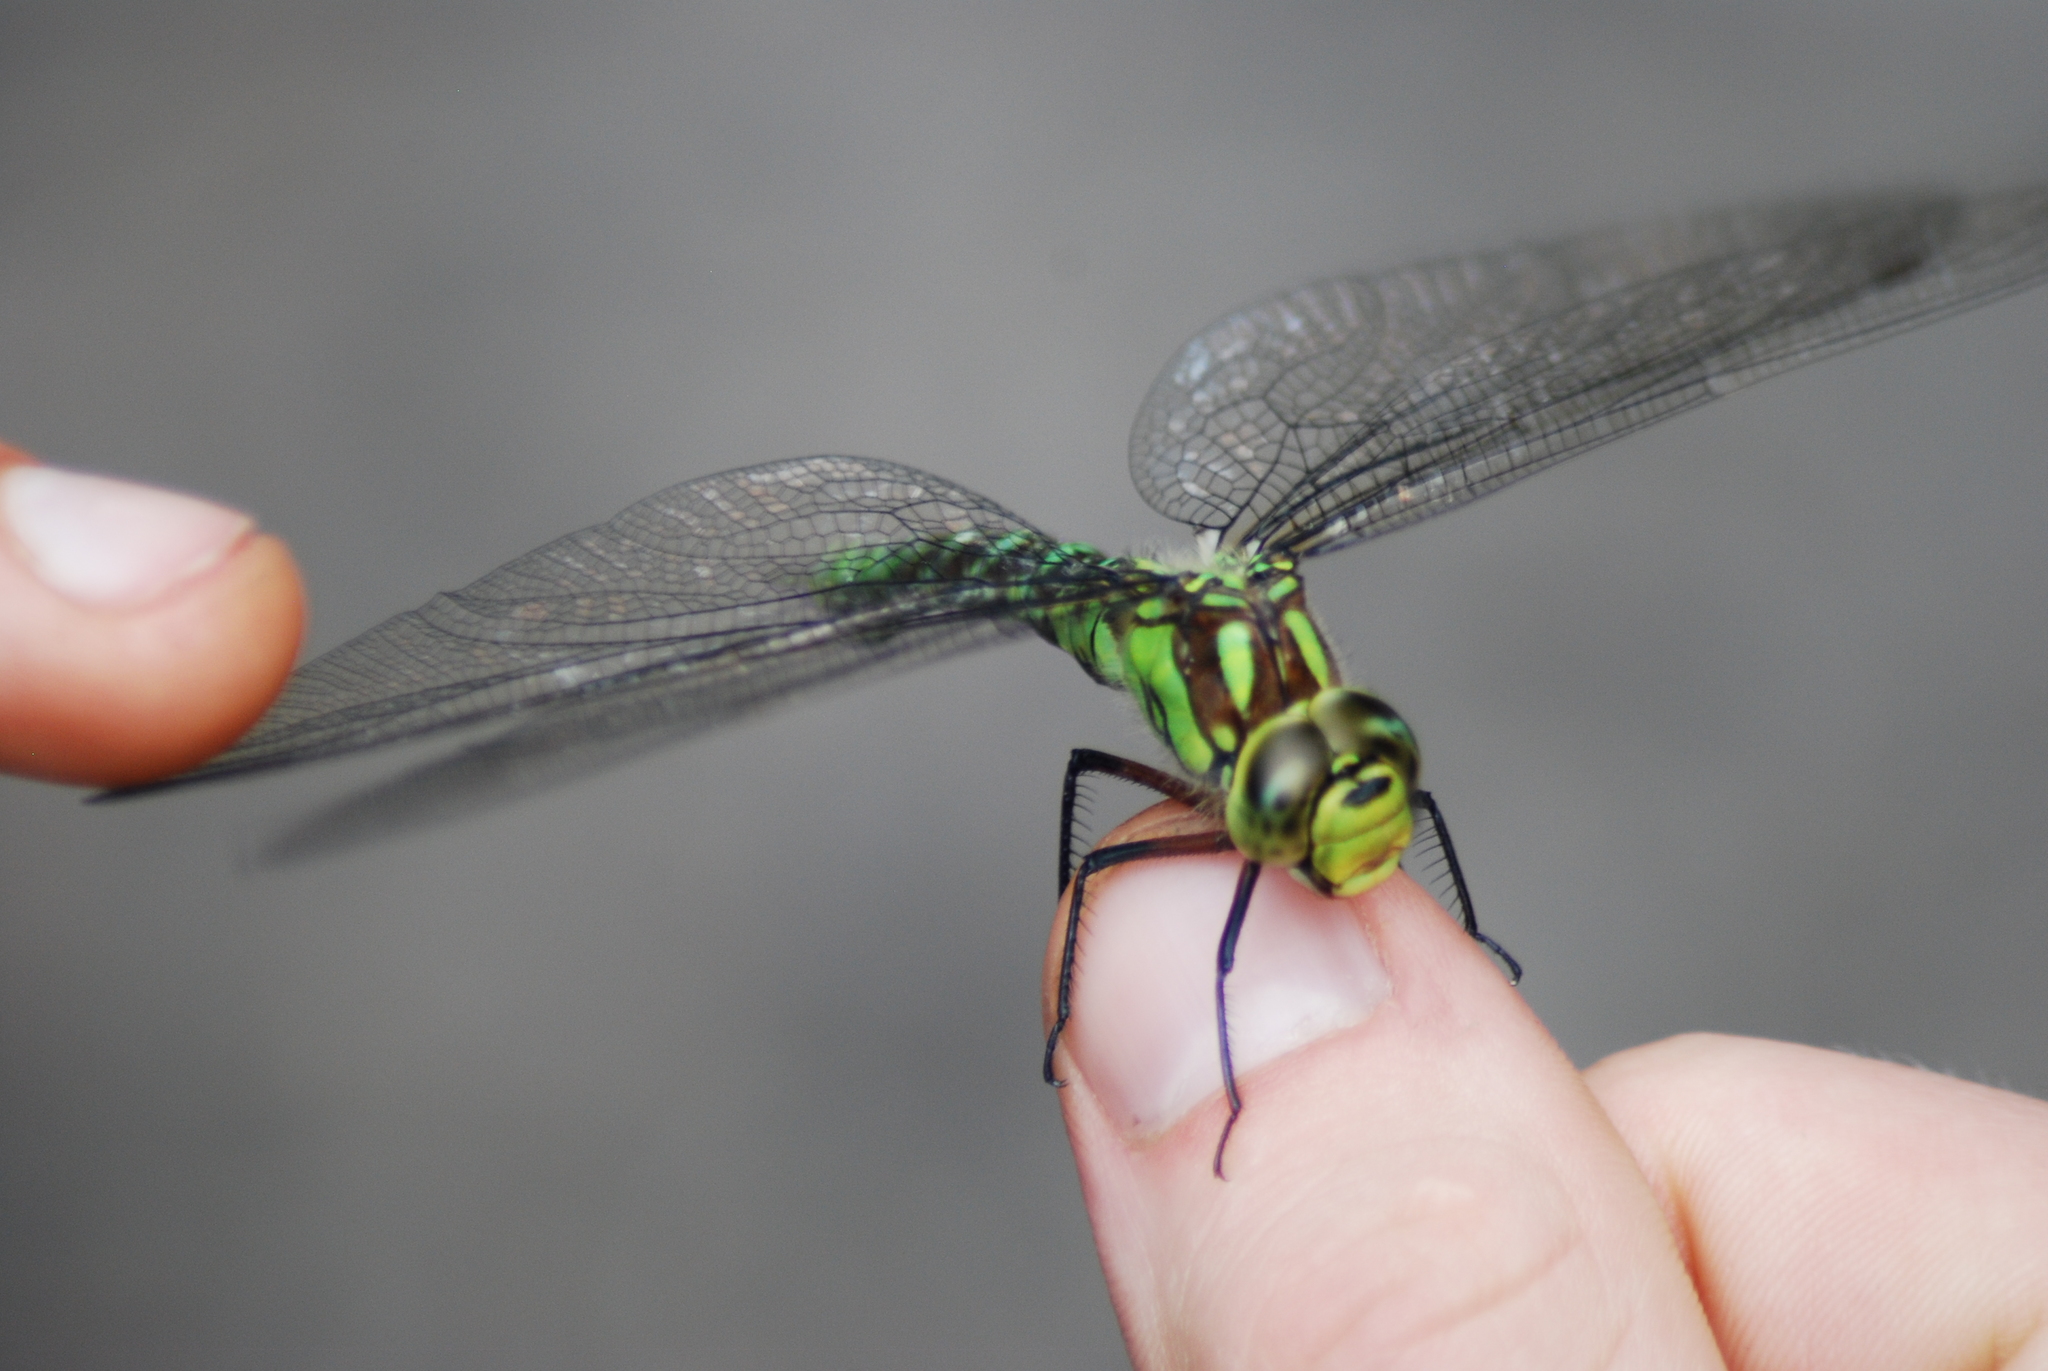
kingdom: Animalia
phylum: Arthropoda
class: Insecta
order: Odonata
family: Aeshnidae
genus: Aeshna
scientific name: Aeshna cyanea
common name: Southern hawker
